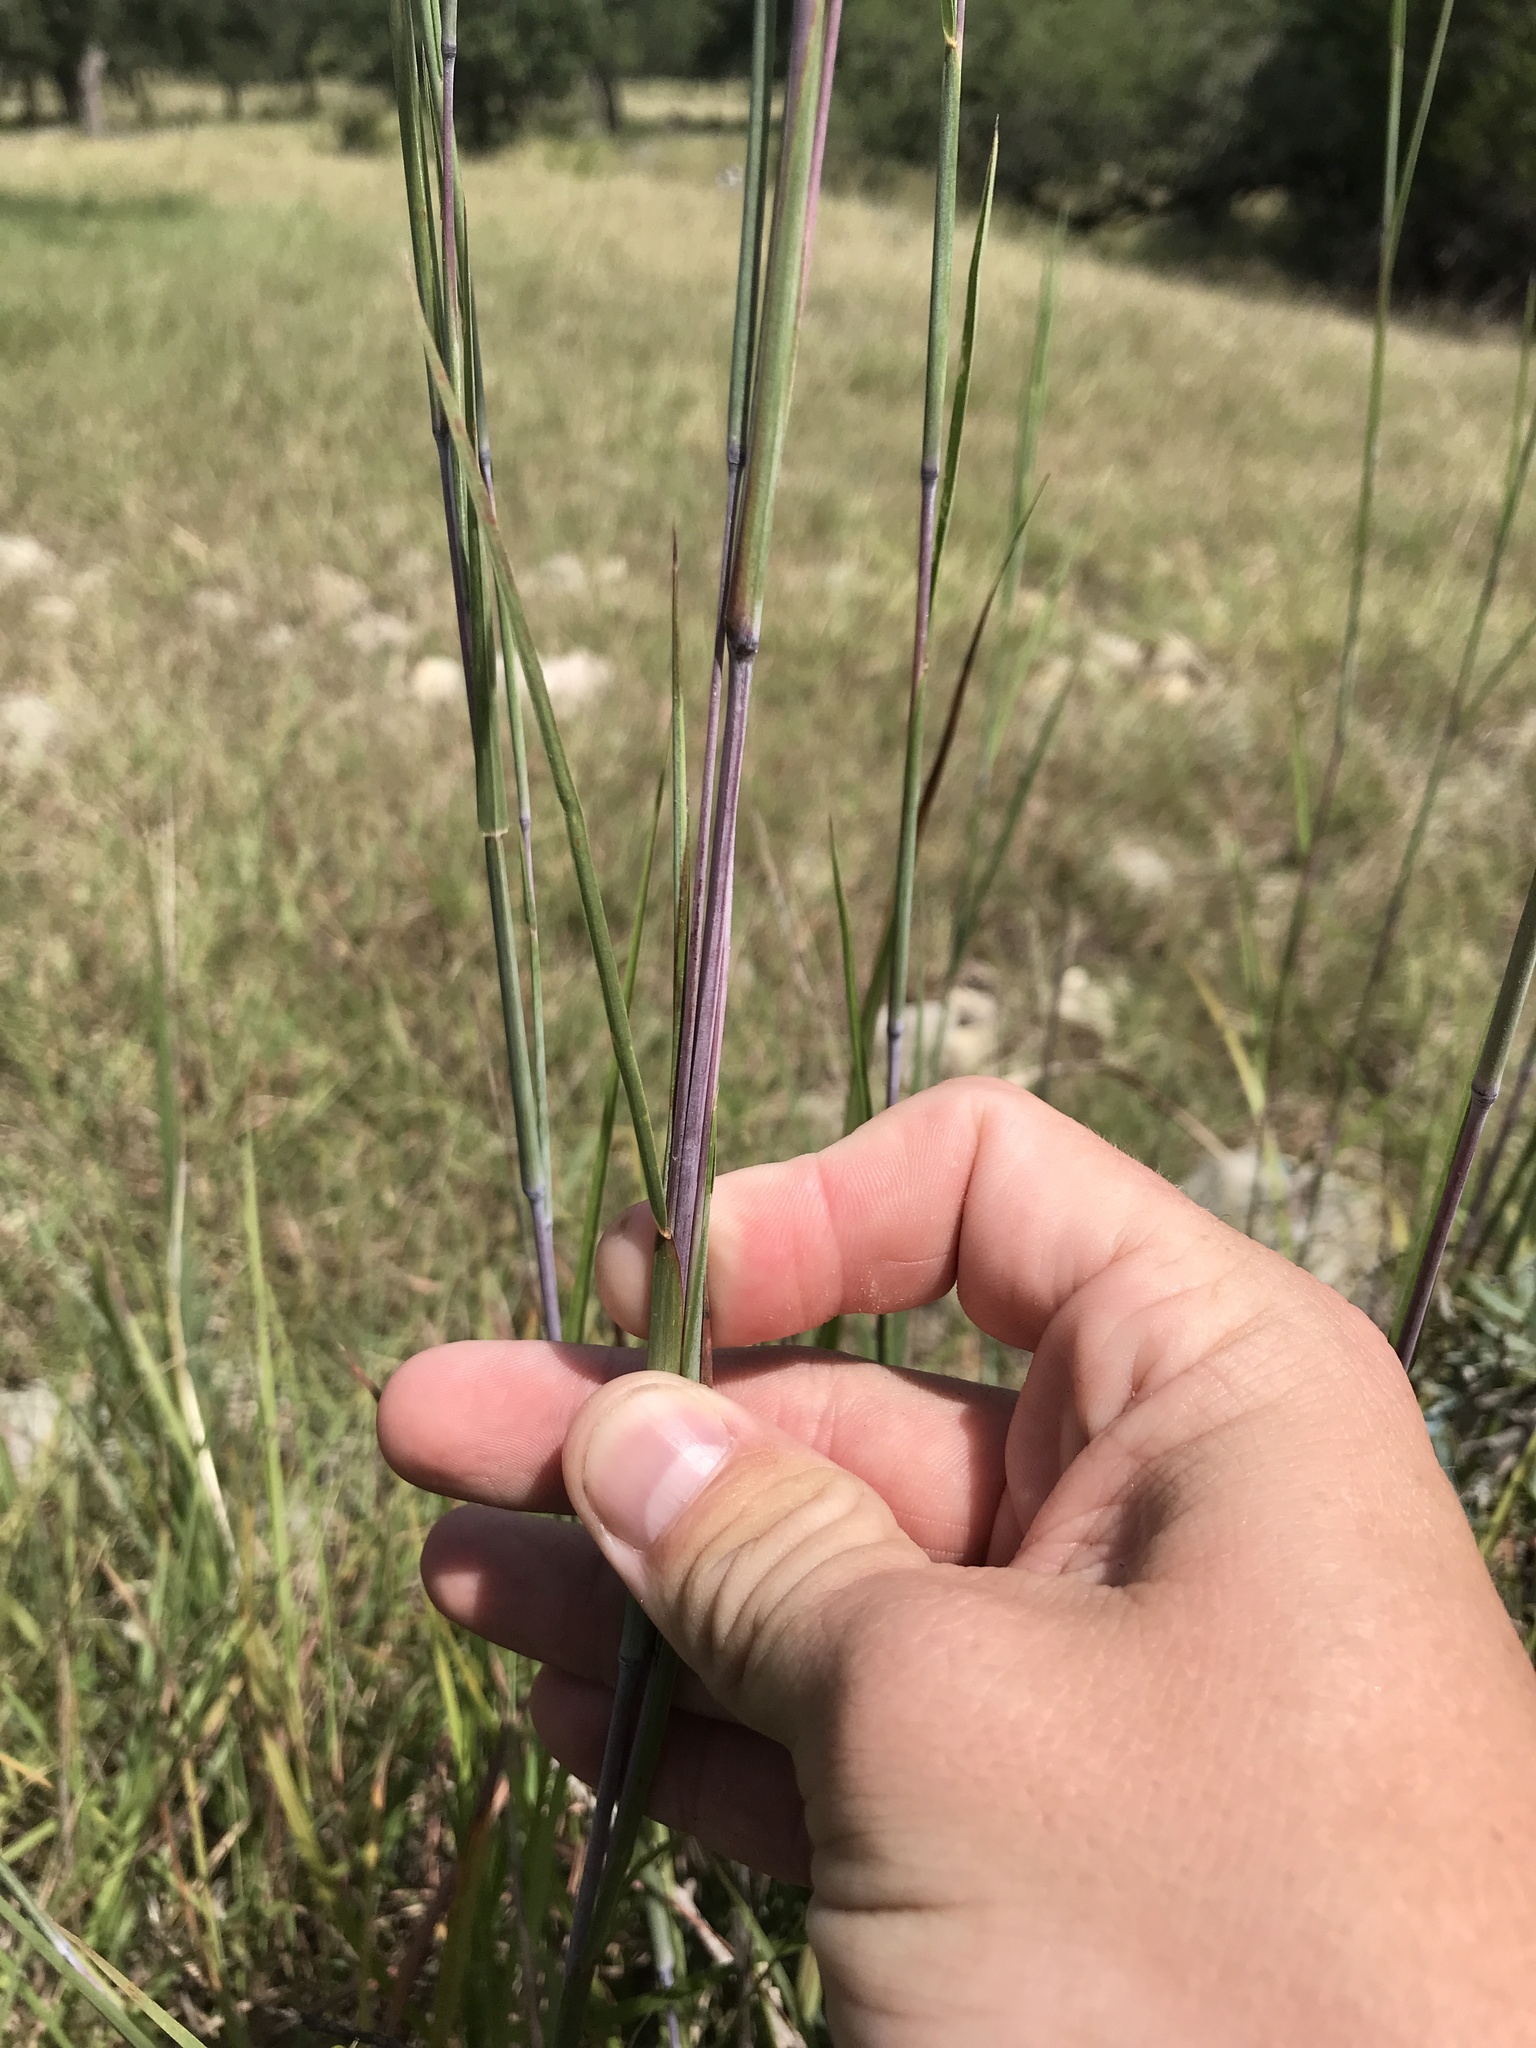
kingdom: Plantae
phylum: Tracheophyta
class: Liliopsida
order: Poales
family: Poaceae
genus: Schizachyrium
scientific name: Schizachyrium scoparium
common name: Little bluestem
